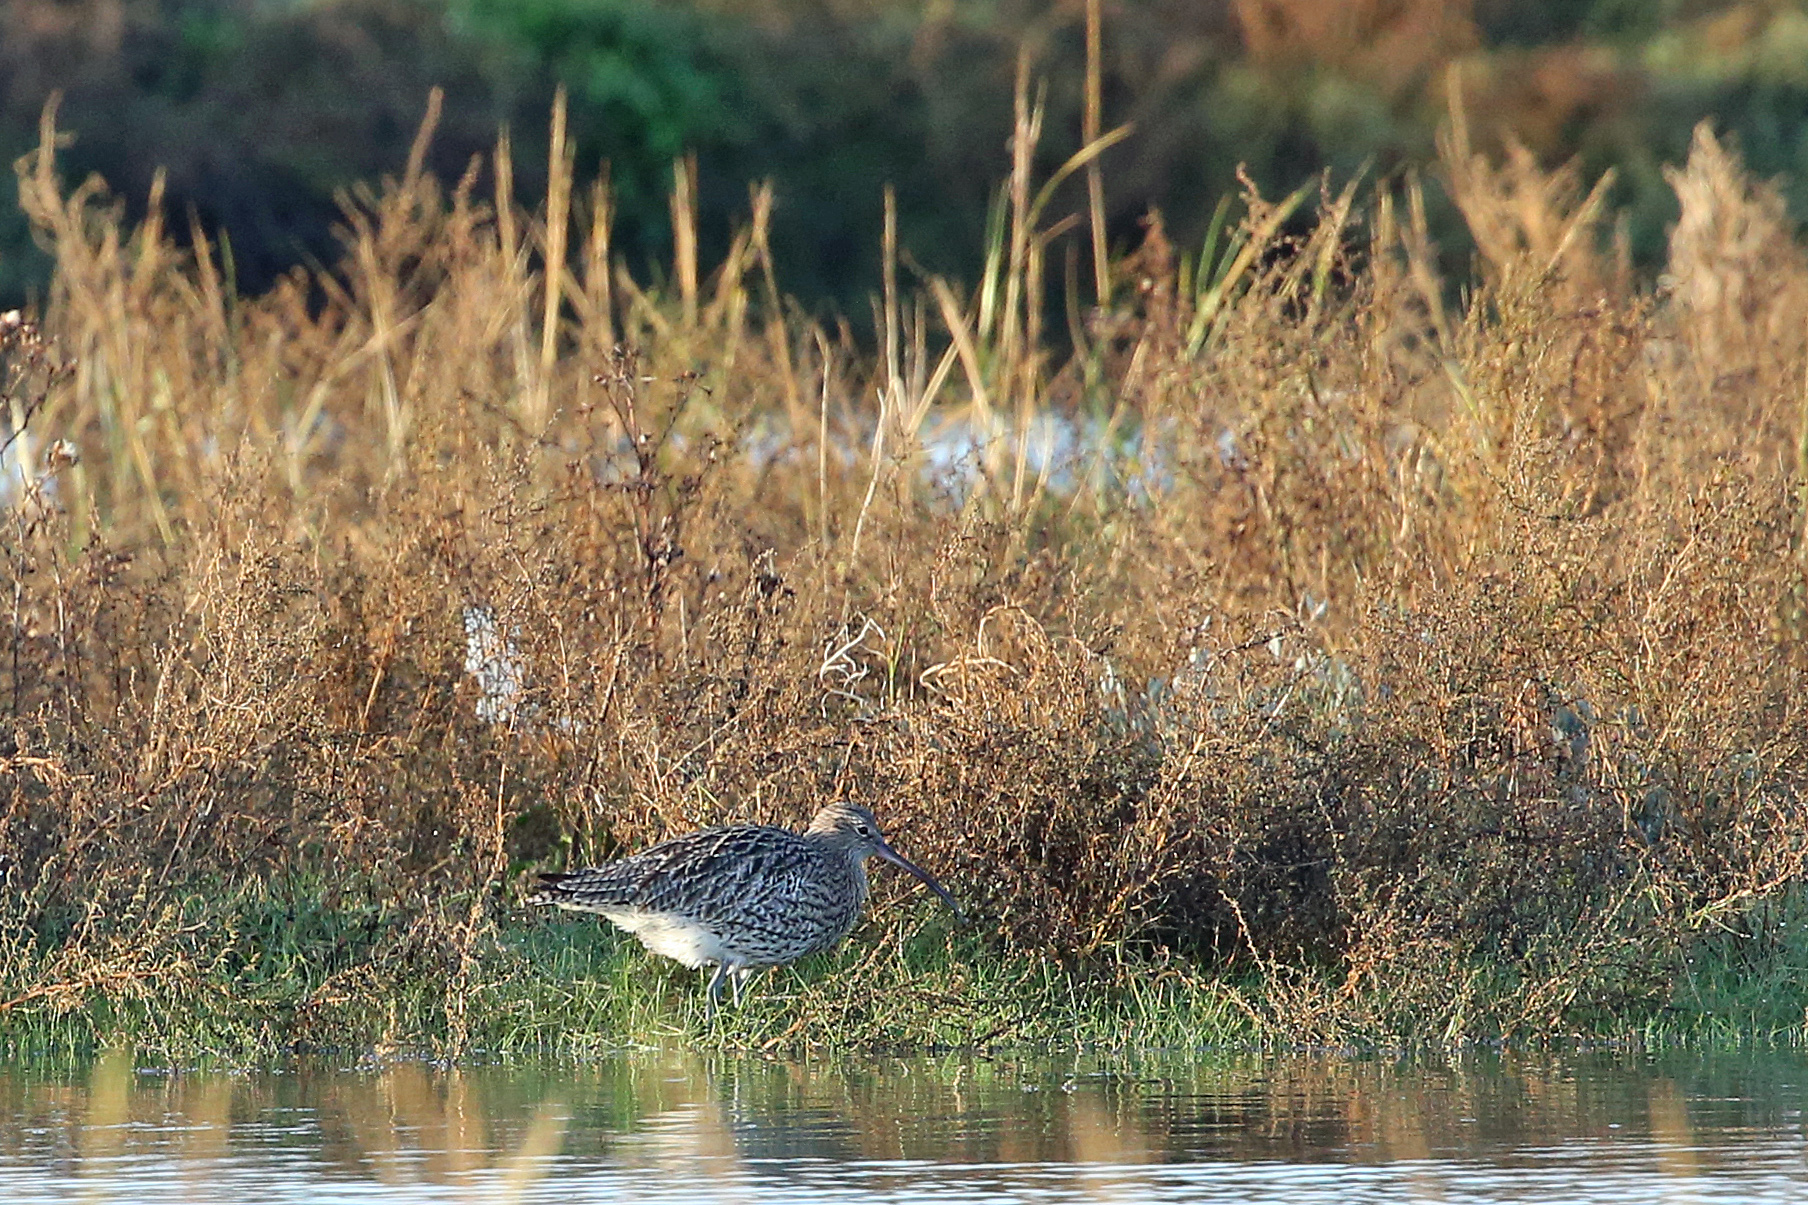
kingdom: Animalia
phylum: Chordata
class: Aves
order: Charadriiformes
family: Scolopacidae
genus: Numenius
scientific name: Numenius arquata
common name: Eurasian curlew
